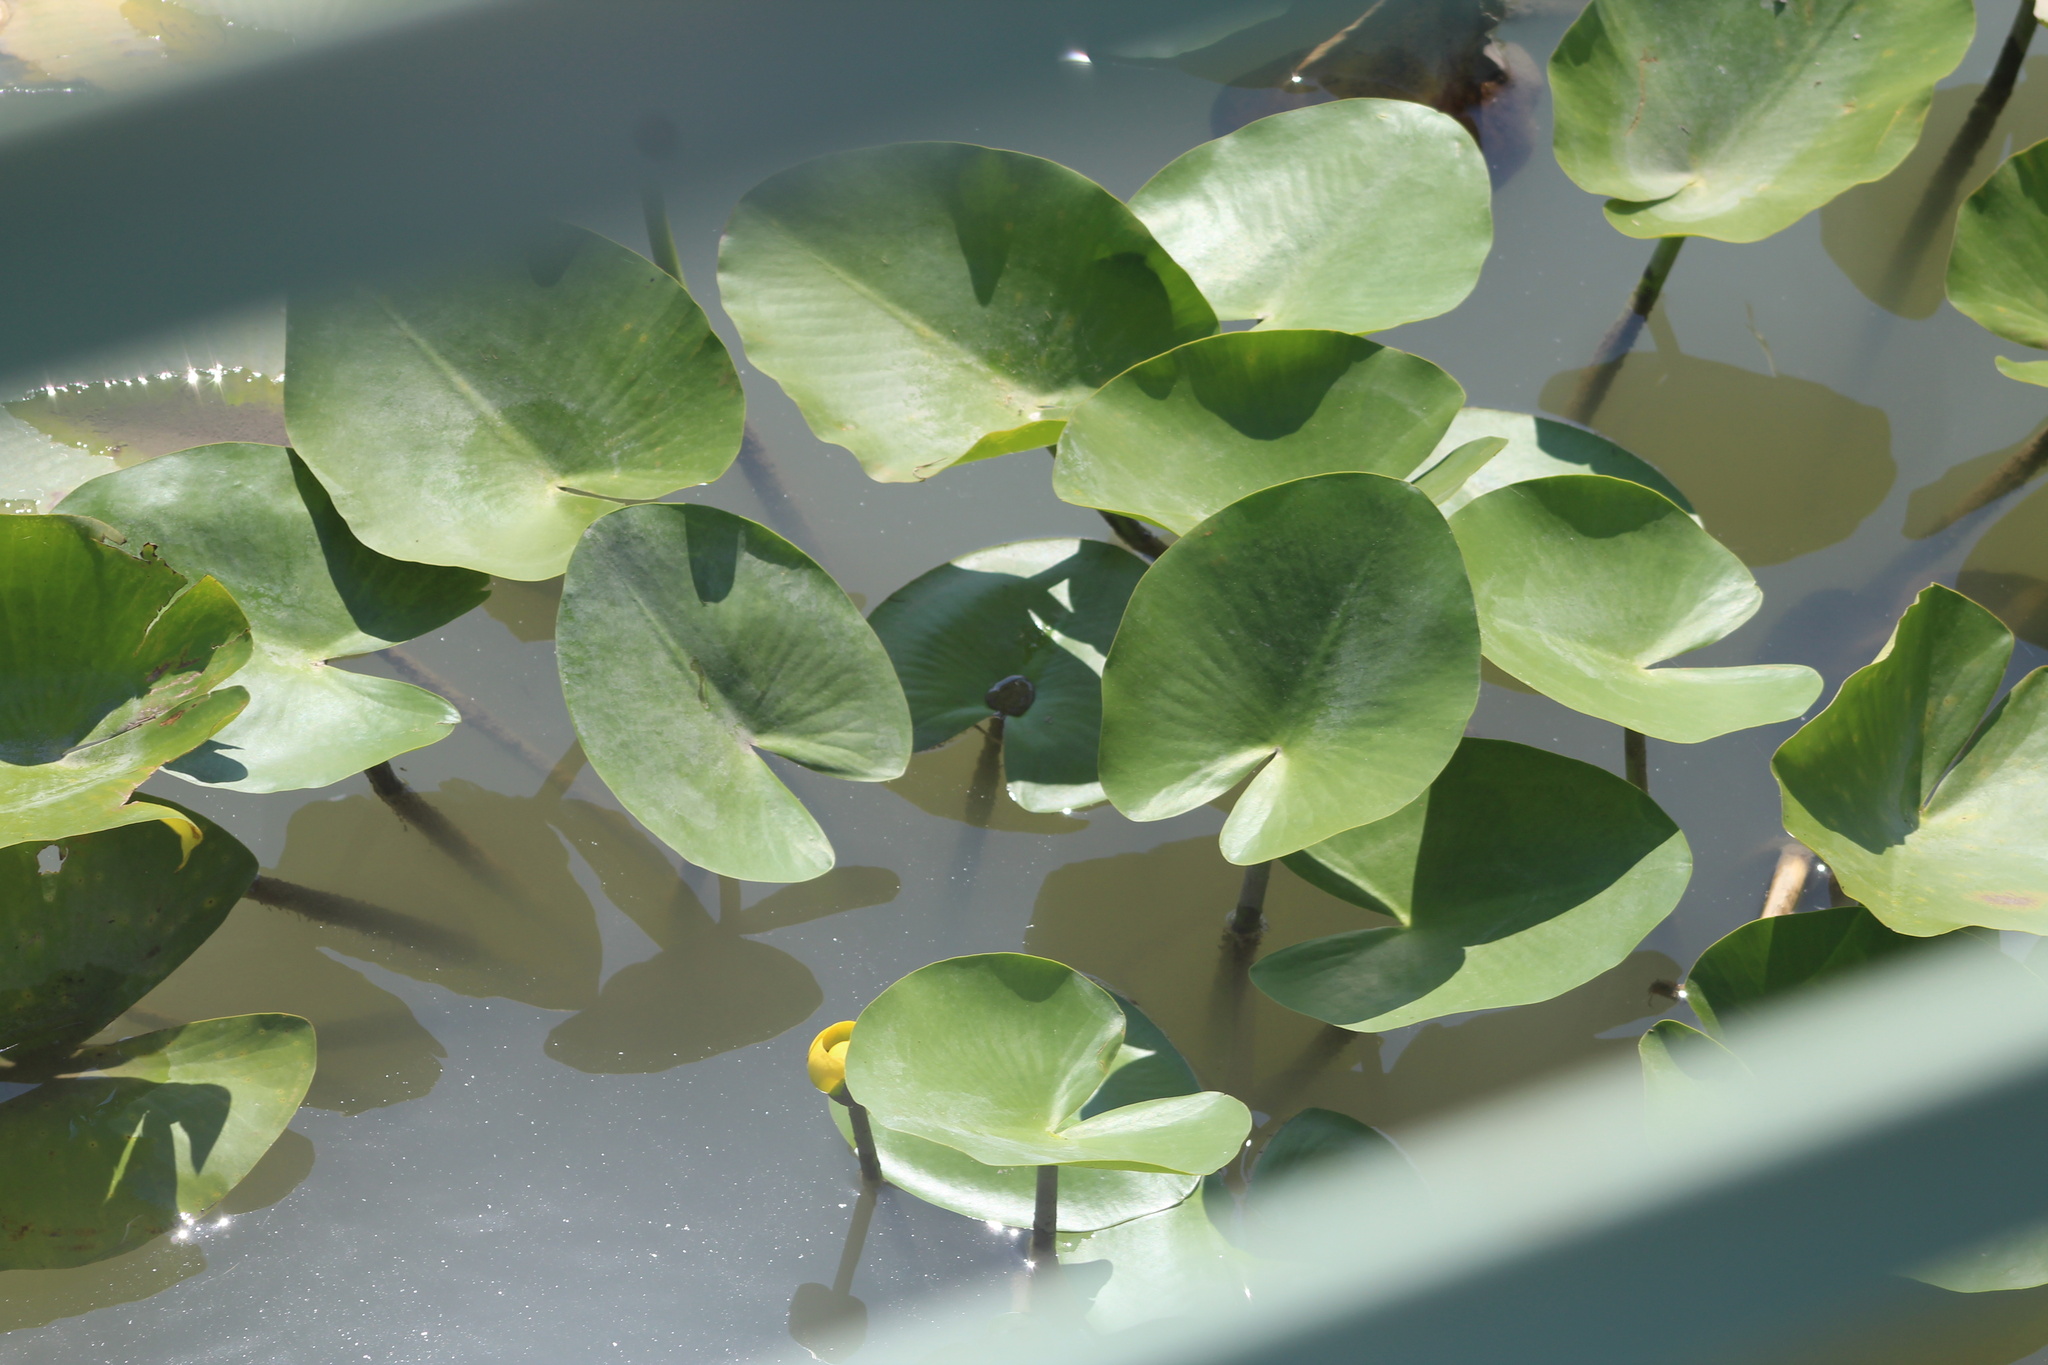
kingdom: Plantae
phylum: Tracheophyta
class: Magnoliopsida
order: Nymphaeales
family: Nymphaeaceae
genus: Nuphar
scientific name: Nuphar advena
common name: Spatter-dock
